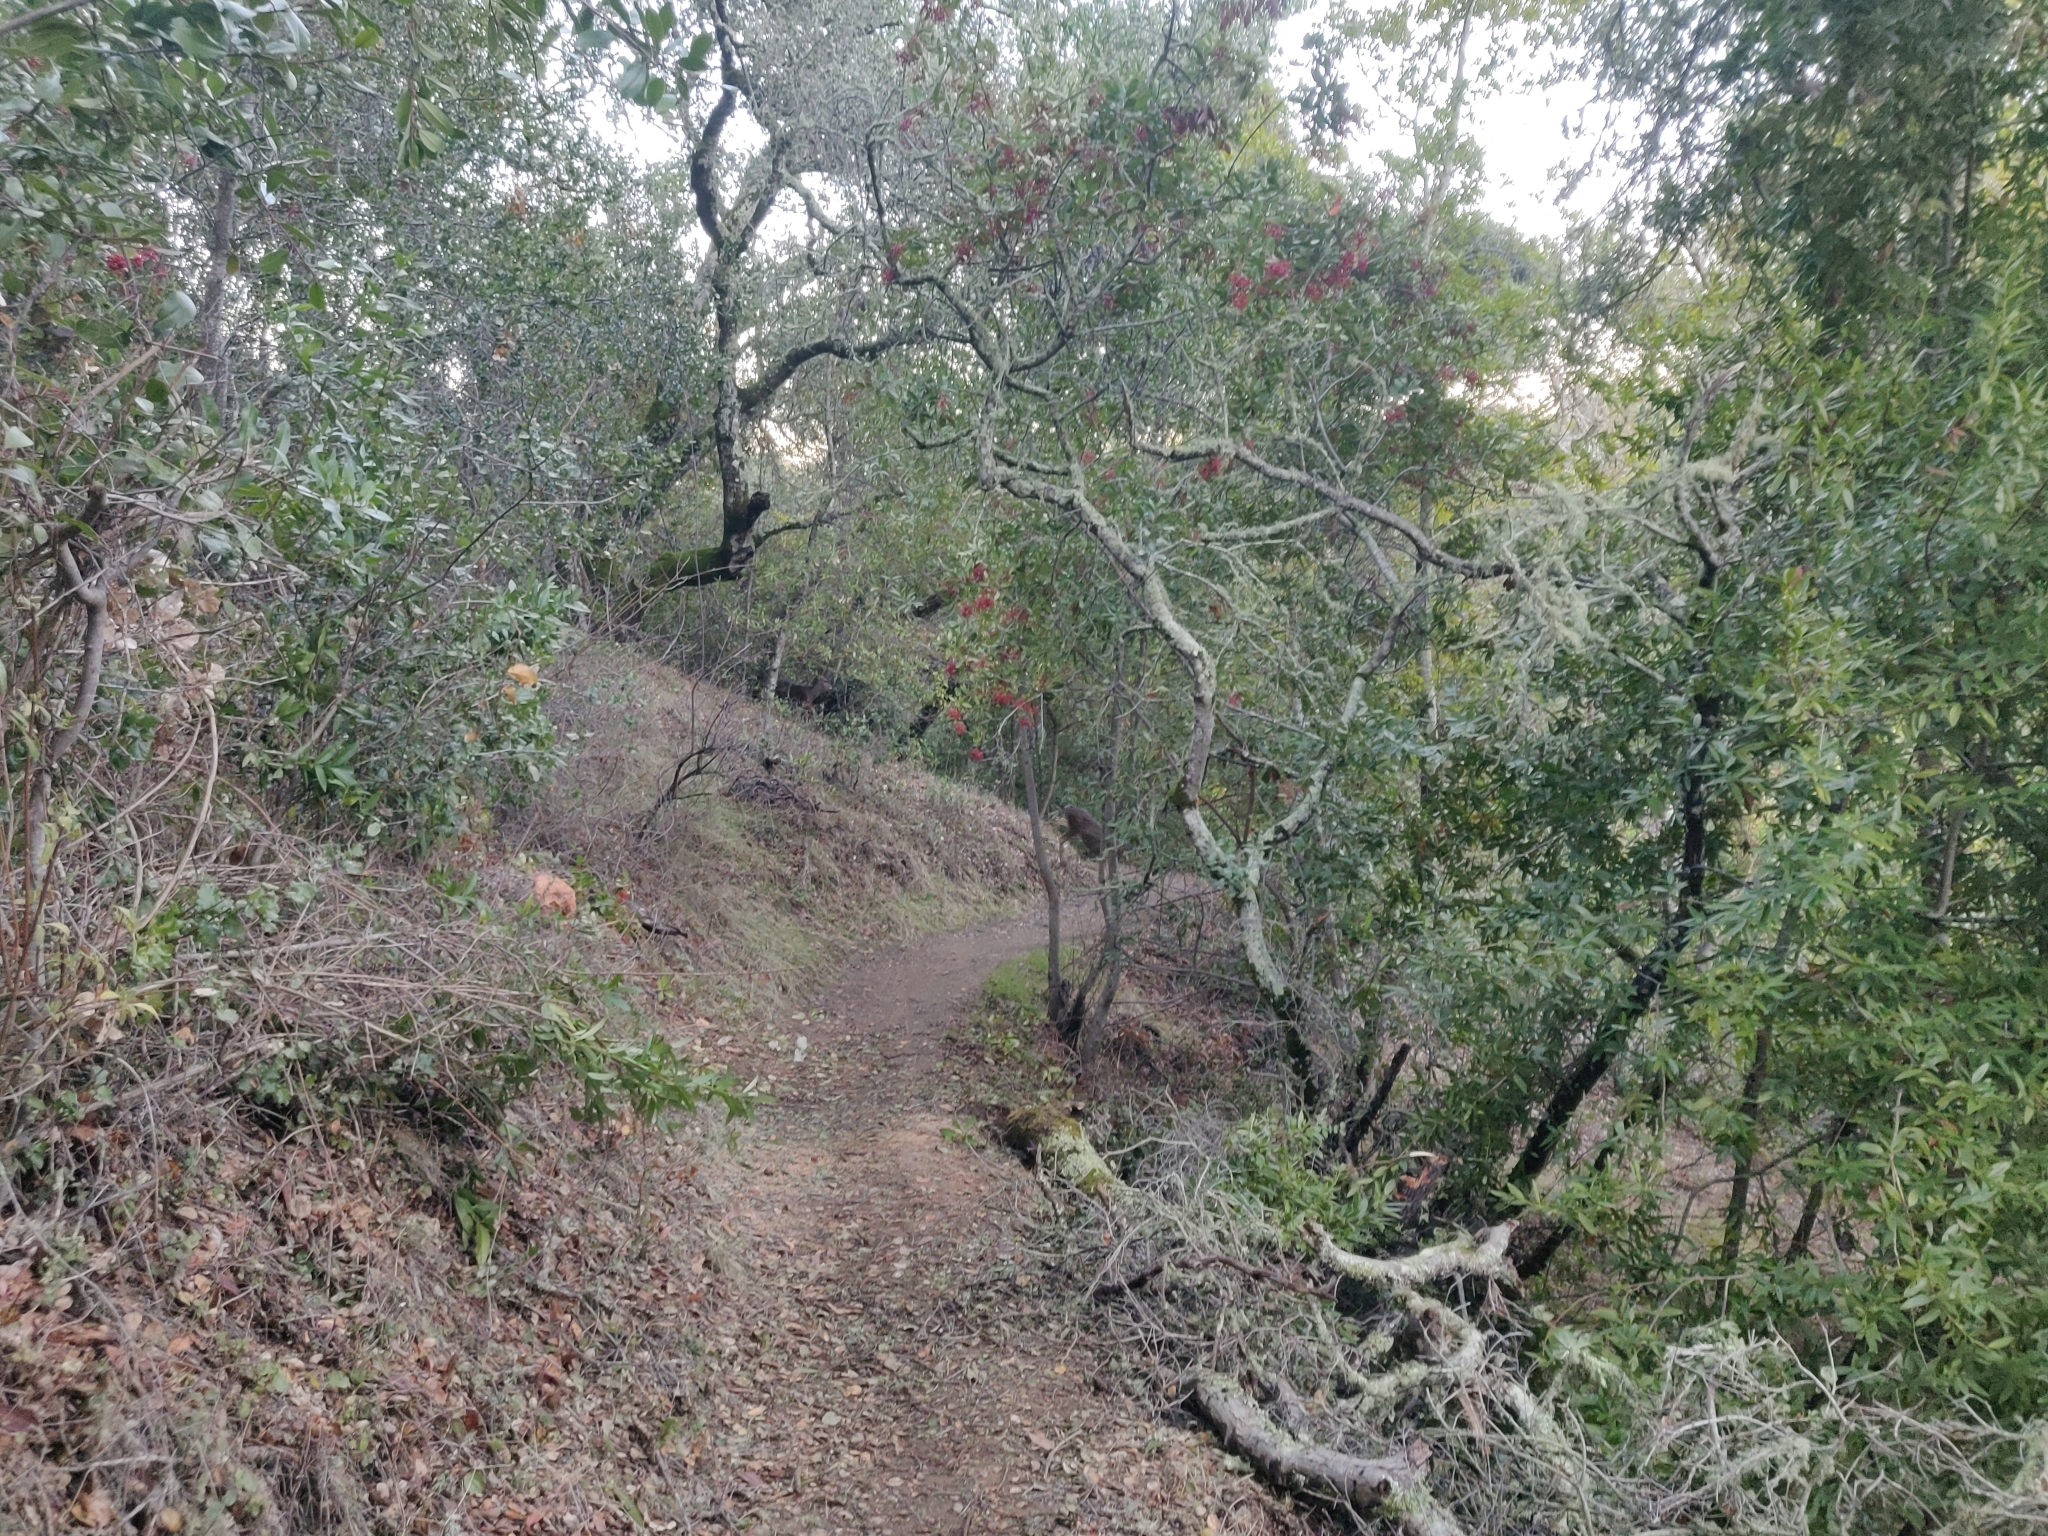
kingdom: Animalia
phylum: Chordata
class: Mammalia
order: Artiodactyla
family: Cervidae
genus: Odocoileus
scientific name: Odocoileus hemionus
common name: Mule deer
